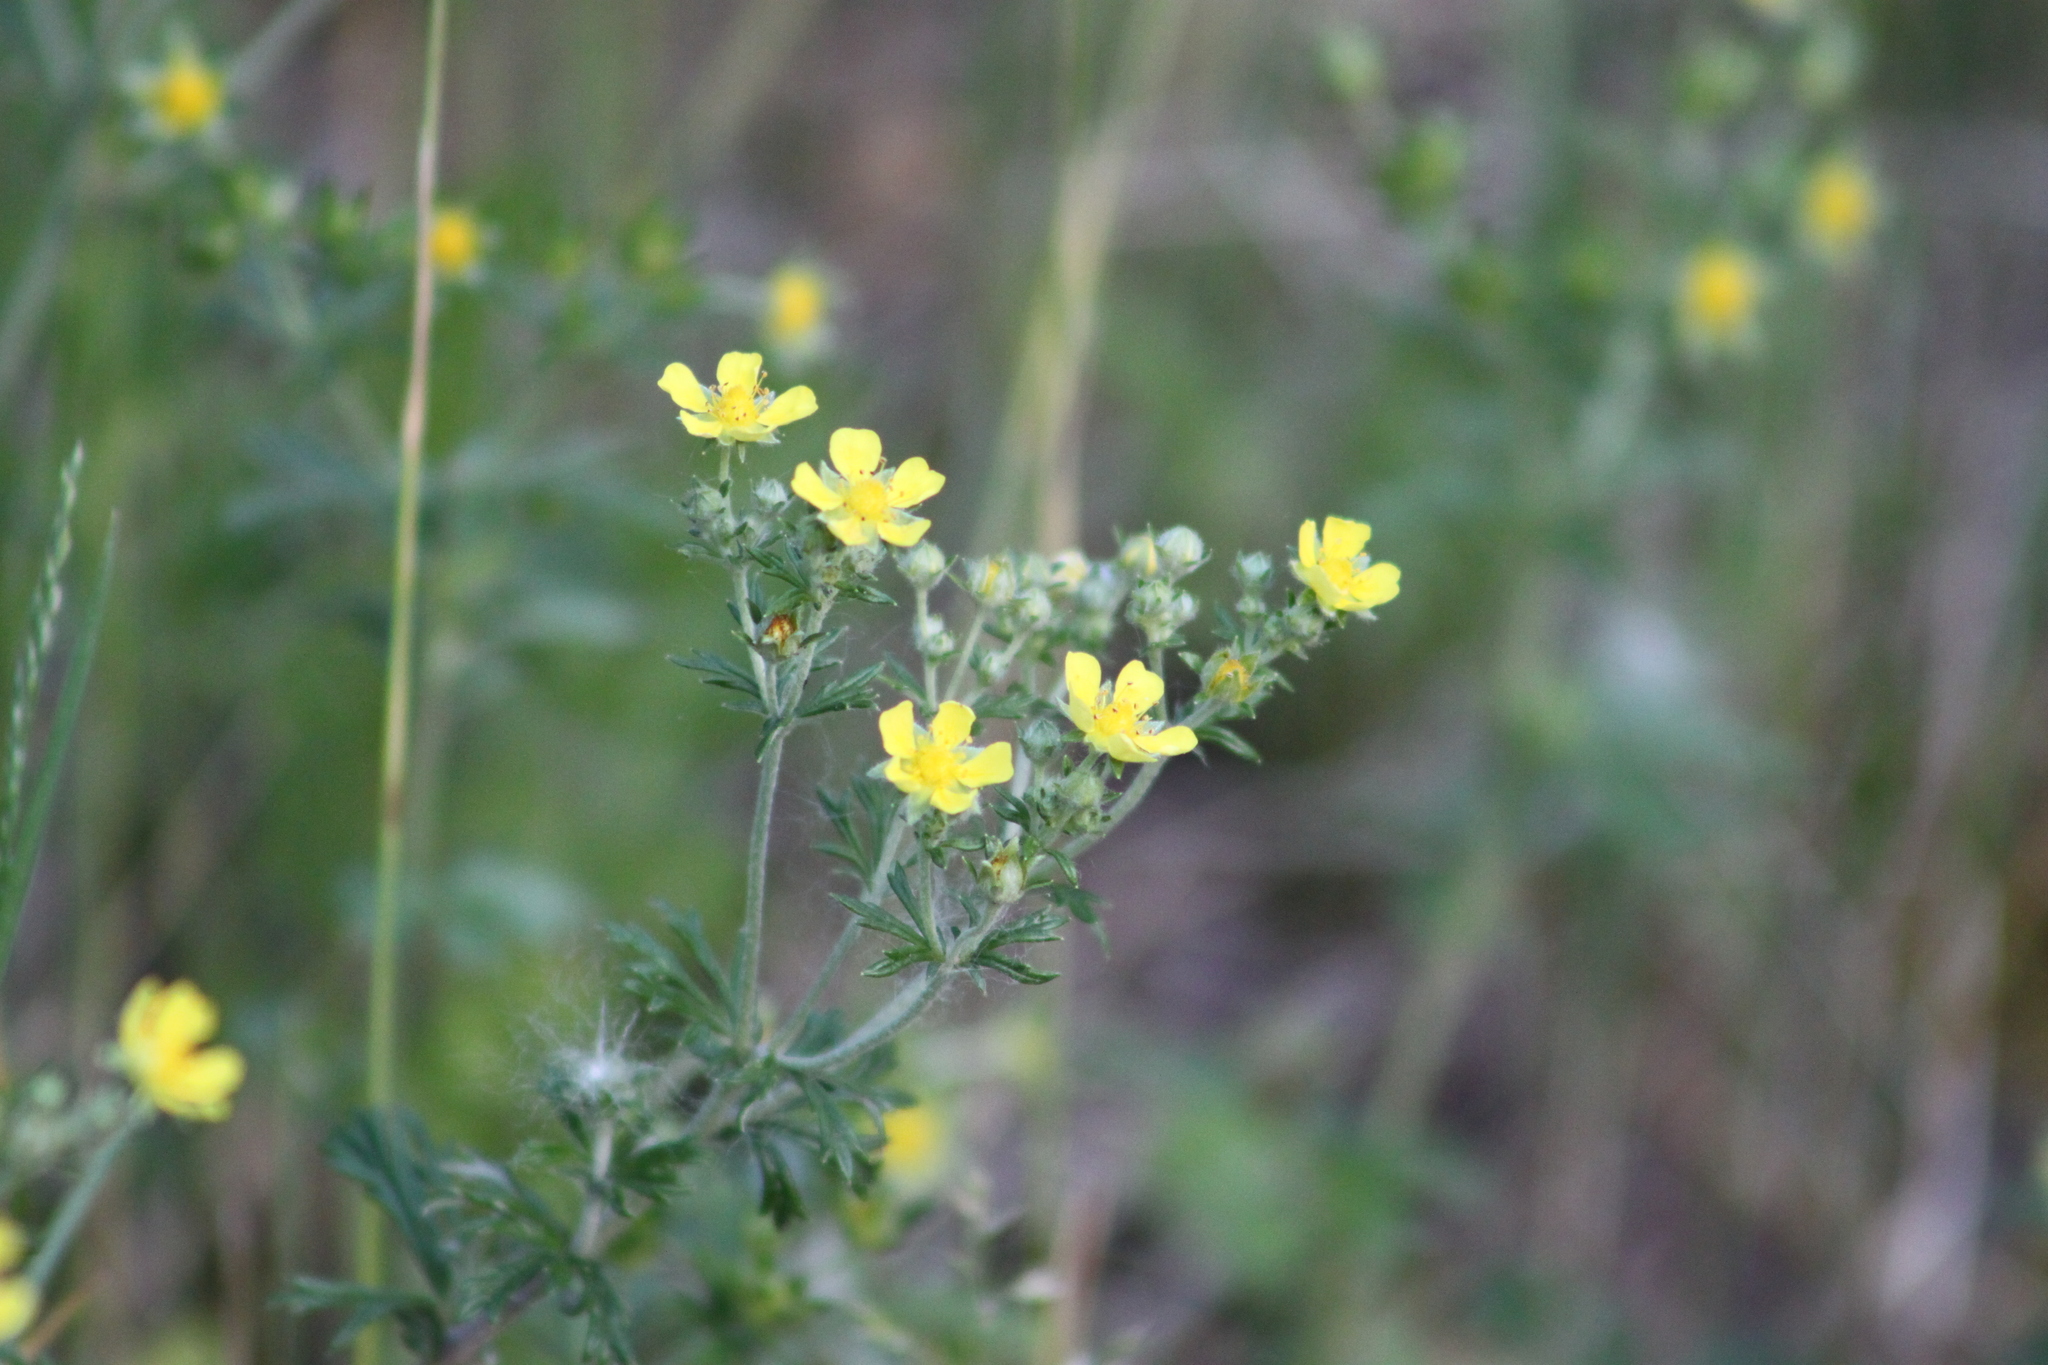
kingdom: Plantae
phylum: Tracheophyta
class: Magnoliopsida
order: Rosales
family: Rosaceae
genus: Potentilla
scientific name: Potentilla argentea
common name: Hoary cinquefoil
